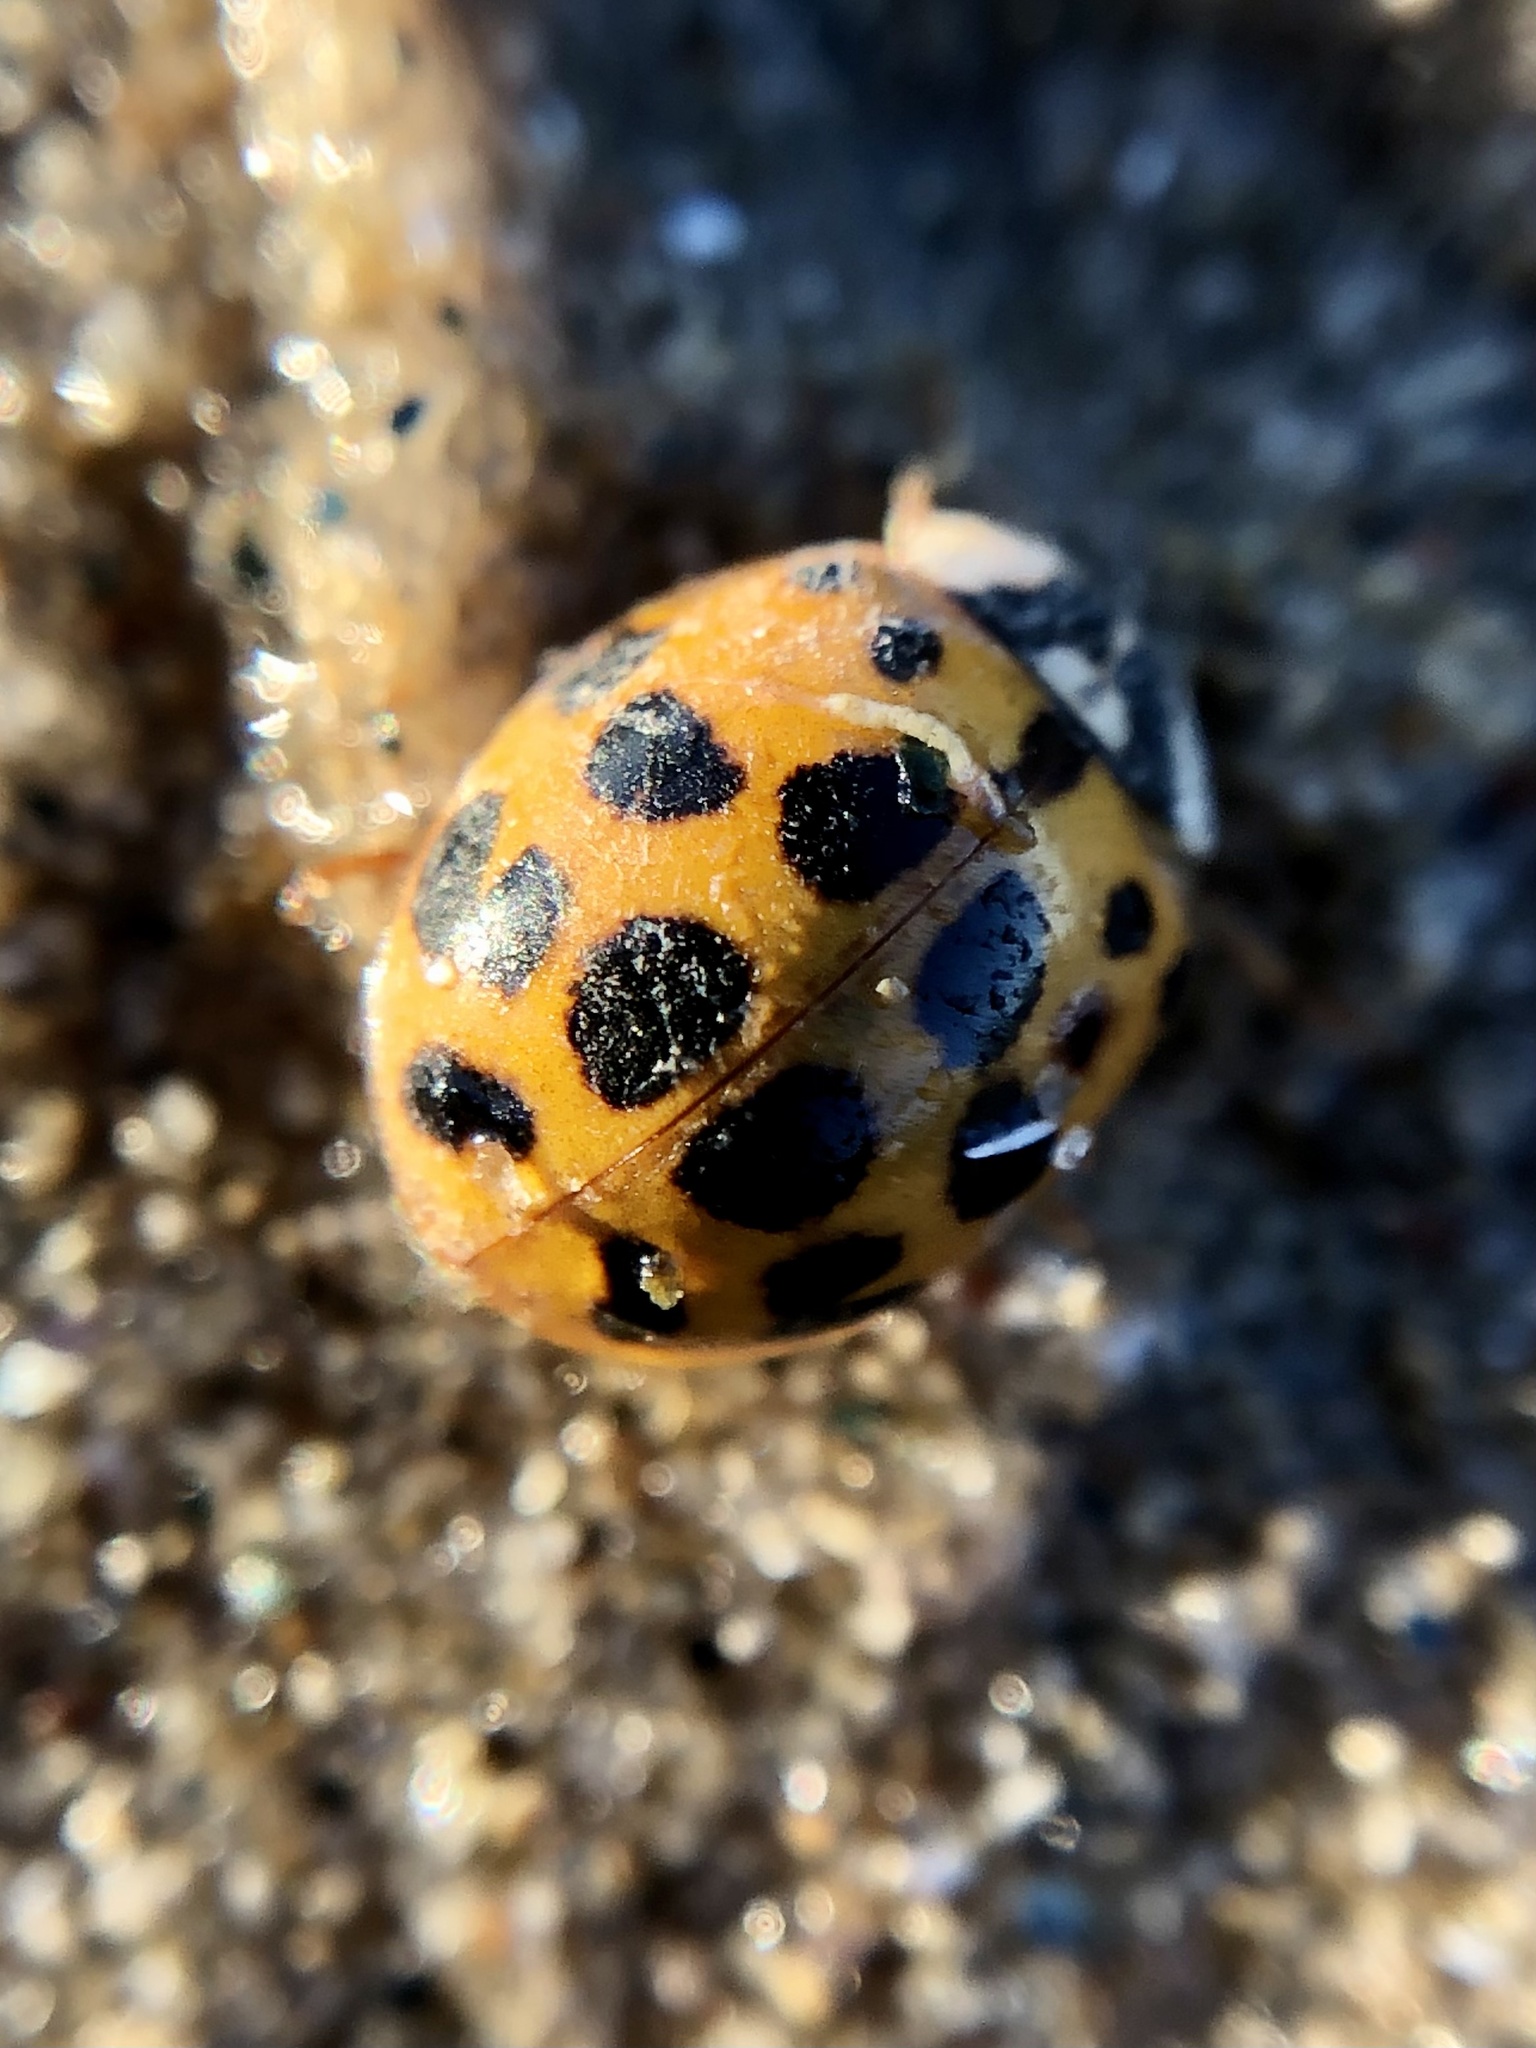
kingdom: Animalia
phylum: Arthropoda
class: Insecta
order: Coleoptera
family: Coccinellidae
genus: Harmonia
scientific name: Harmonia axyridis
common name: Harlequin ladybird
